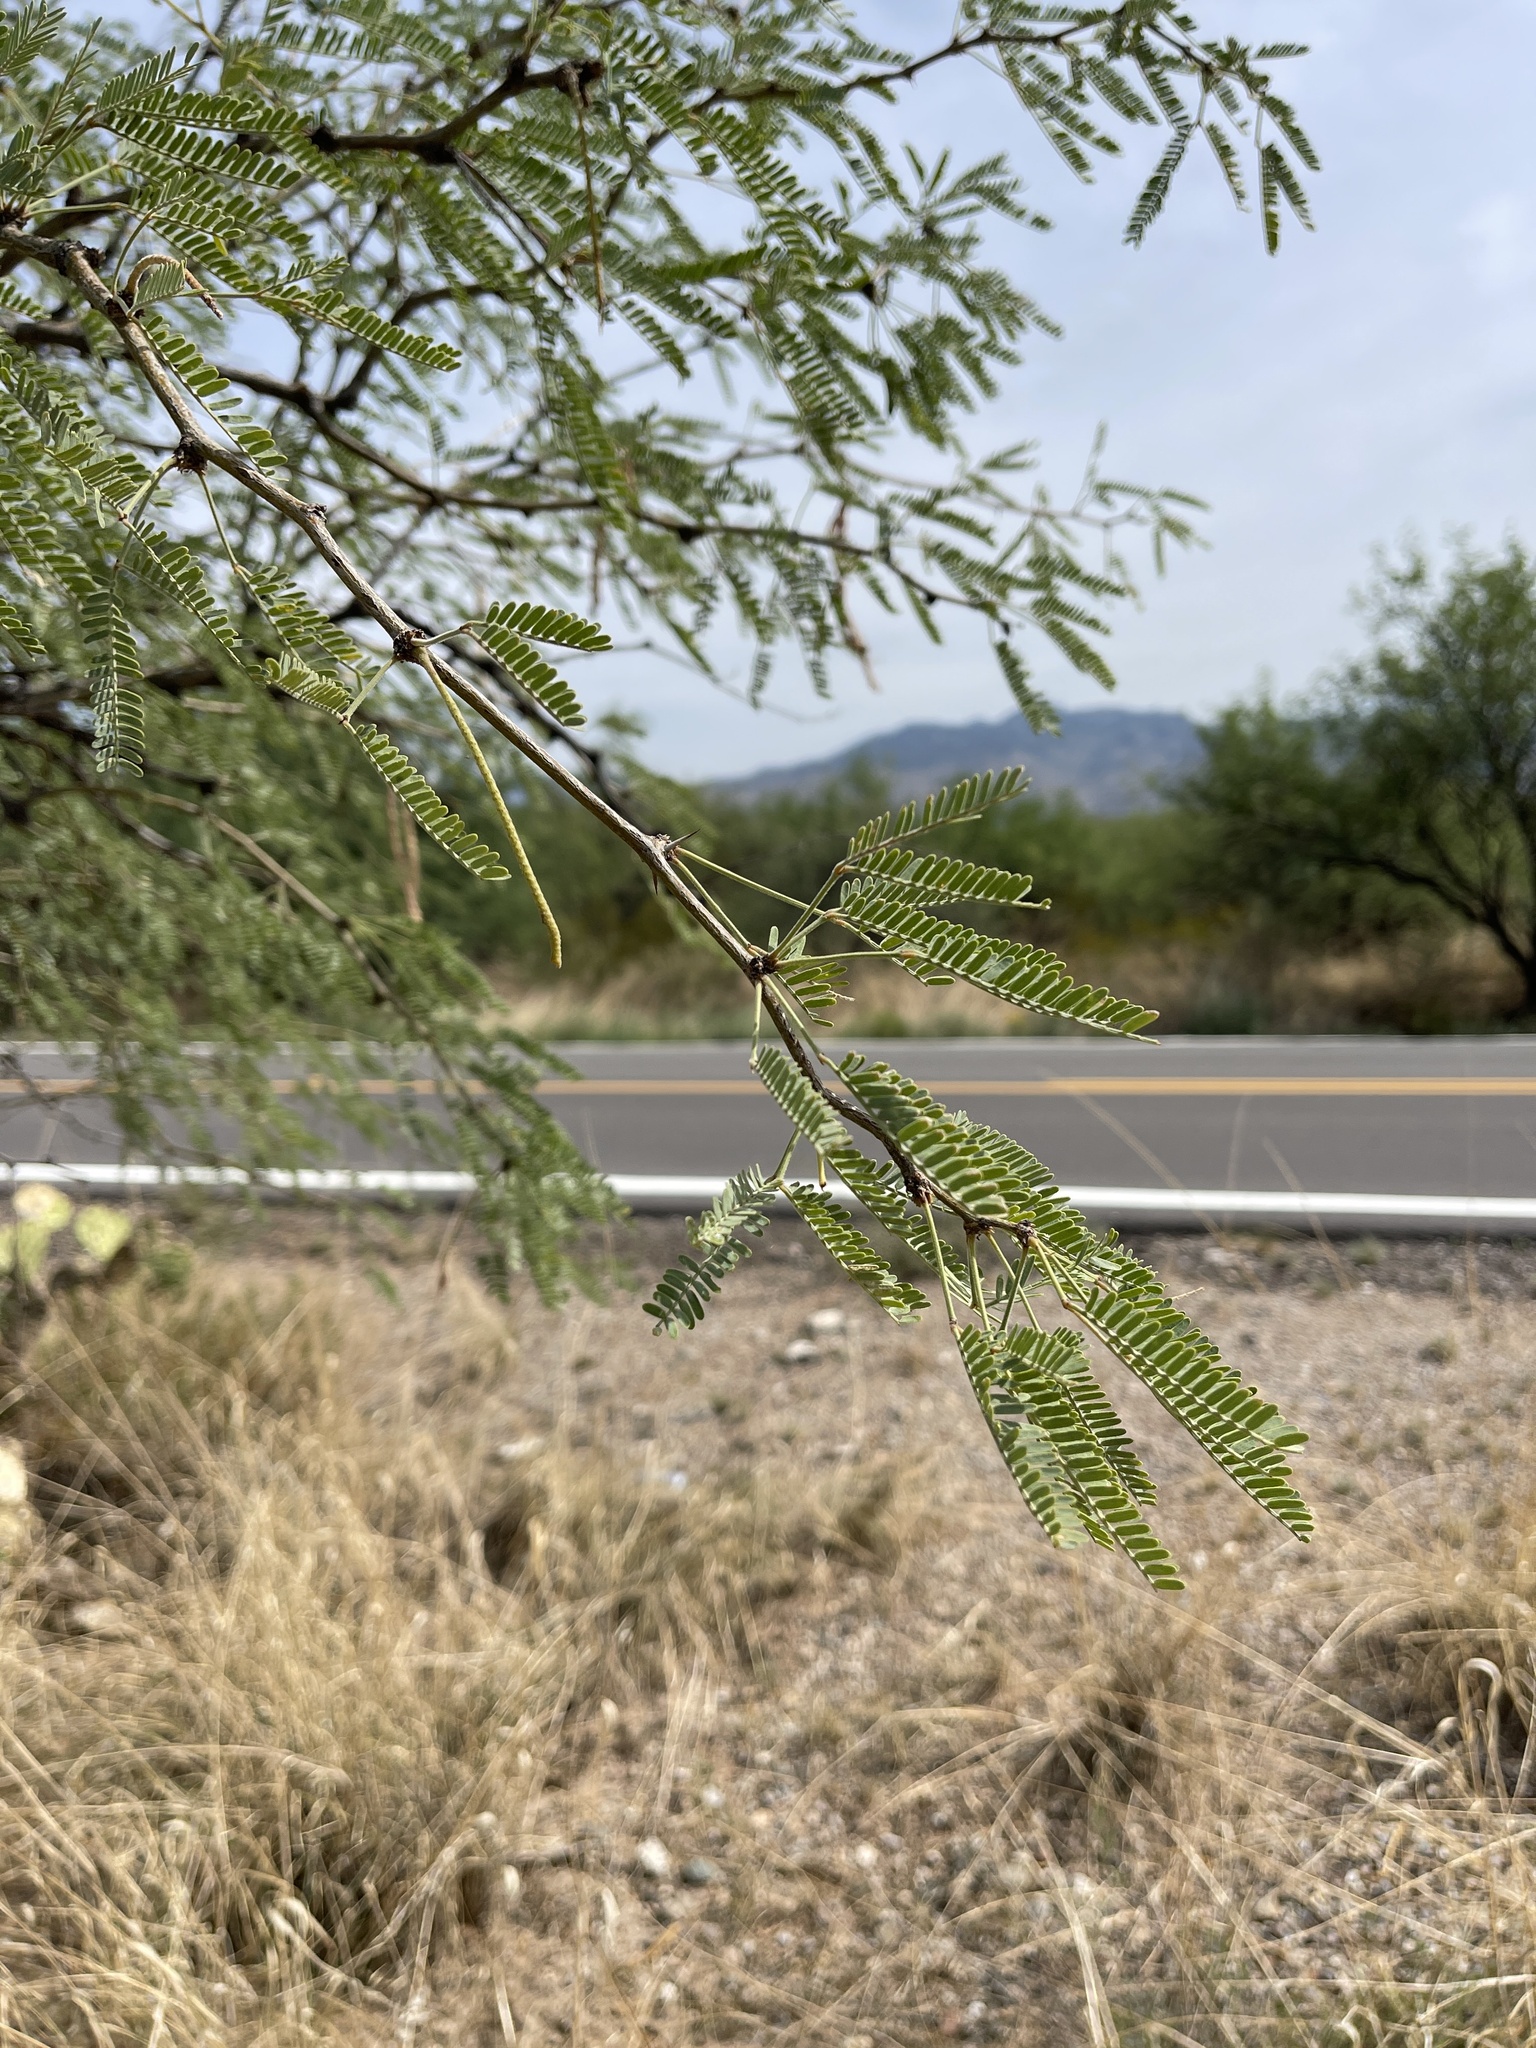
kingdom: Plantae
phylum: Tracheophyta
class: Magnoliopsida
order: Fabales
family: Fabaceae
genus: Prosopis
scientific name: Prosopis velutina
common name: Velvet mesquite
